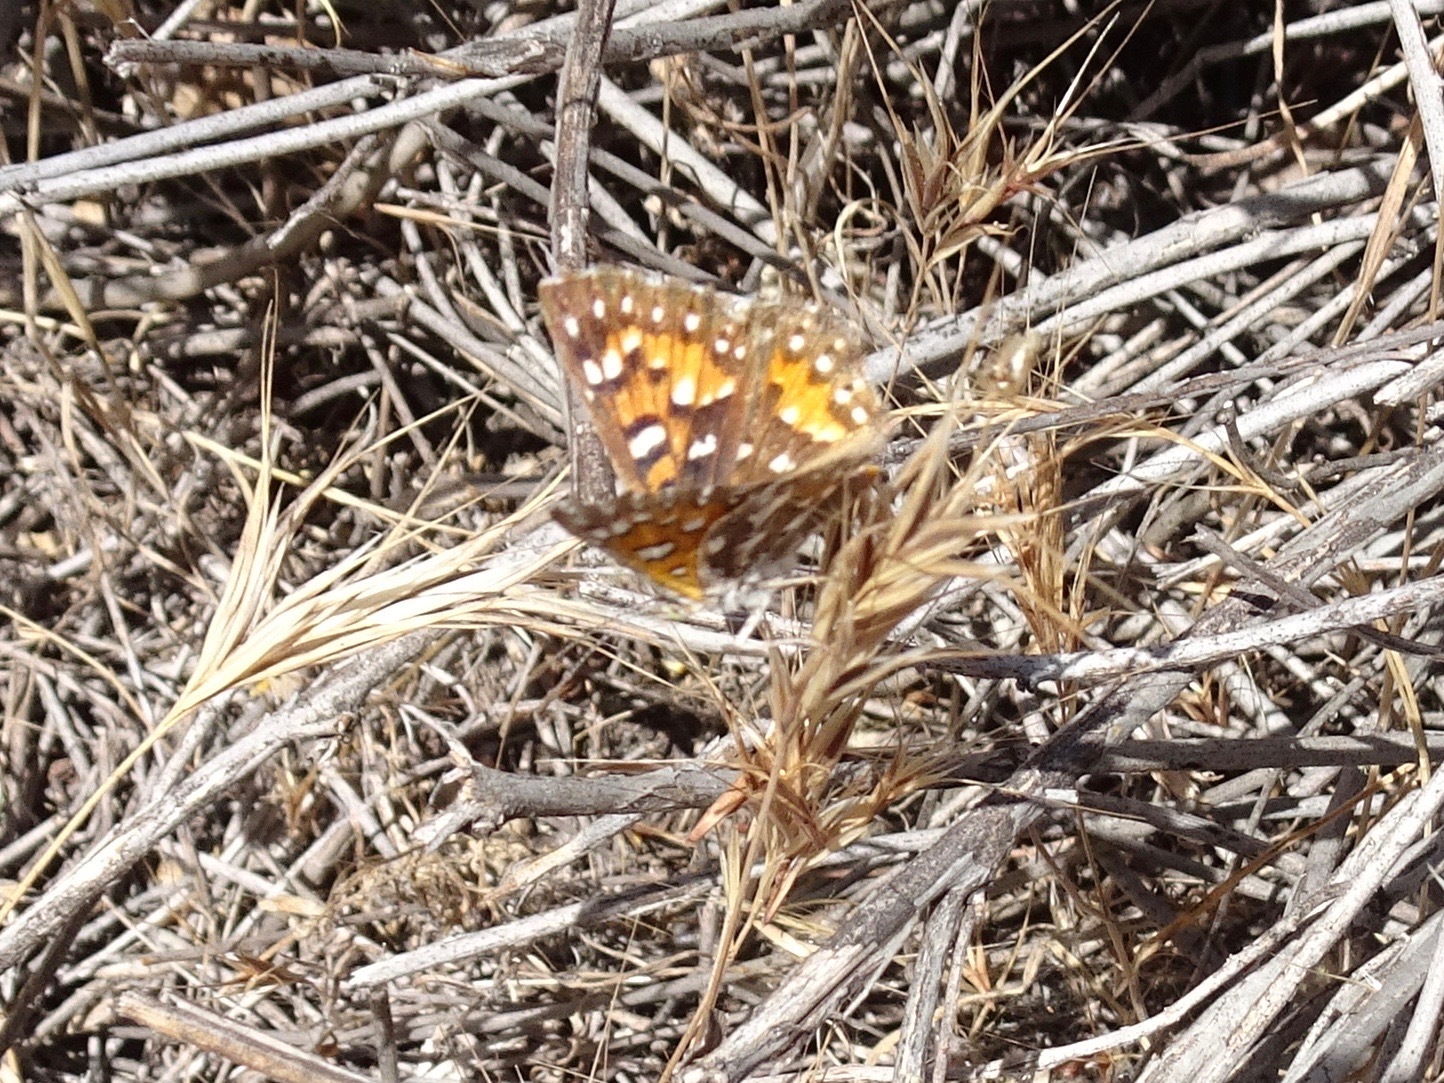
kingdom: Animalia
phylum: Arthropoda
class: Insecta
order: Lepidoptera
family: Riodinidae
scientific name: Riodinidae
